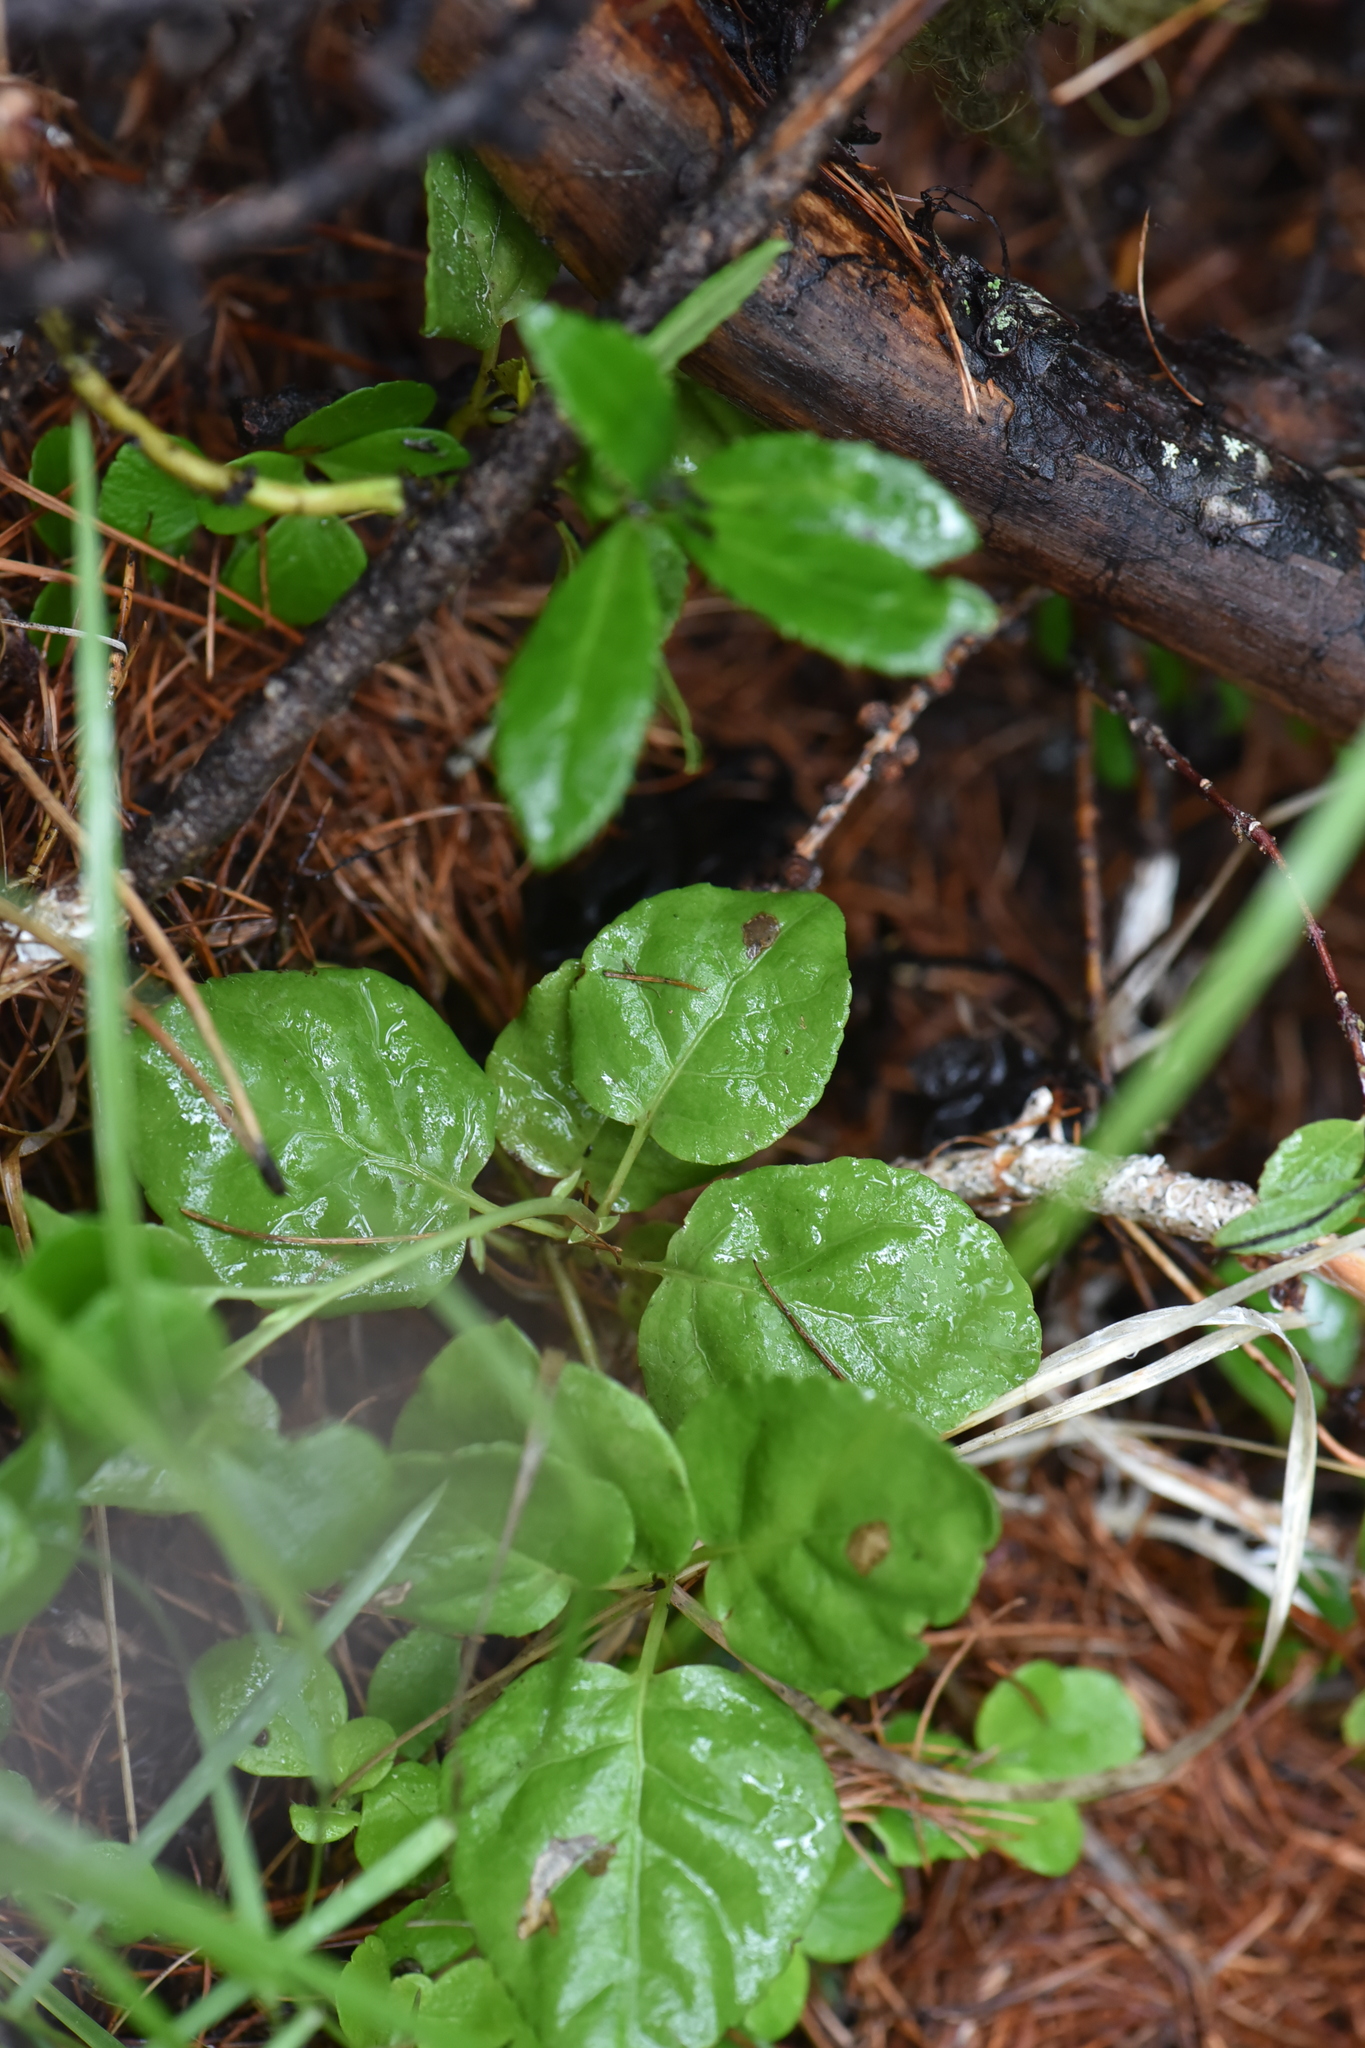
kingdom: Plantae
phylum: Tracheophyta
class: Magnoliopsida
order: Ericales
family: Ericaceae
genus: Orthilia
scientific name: Orthilia secunda
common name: One-sided orthilia
